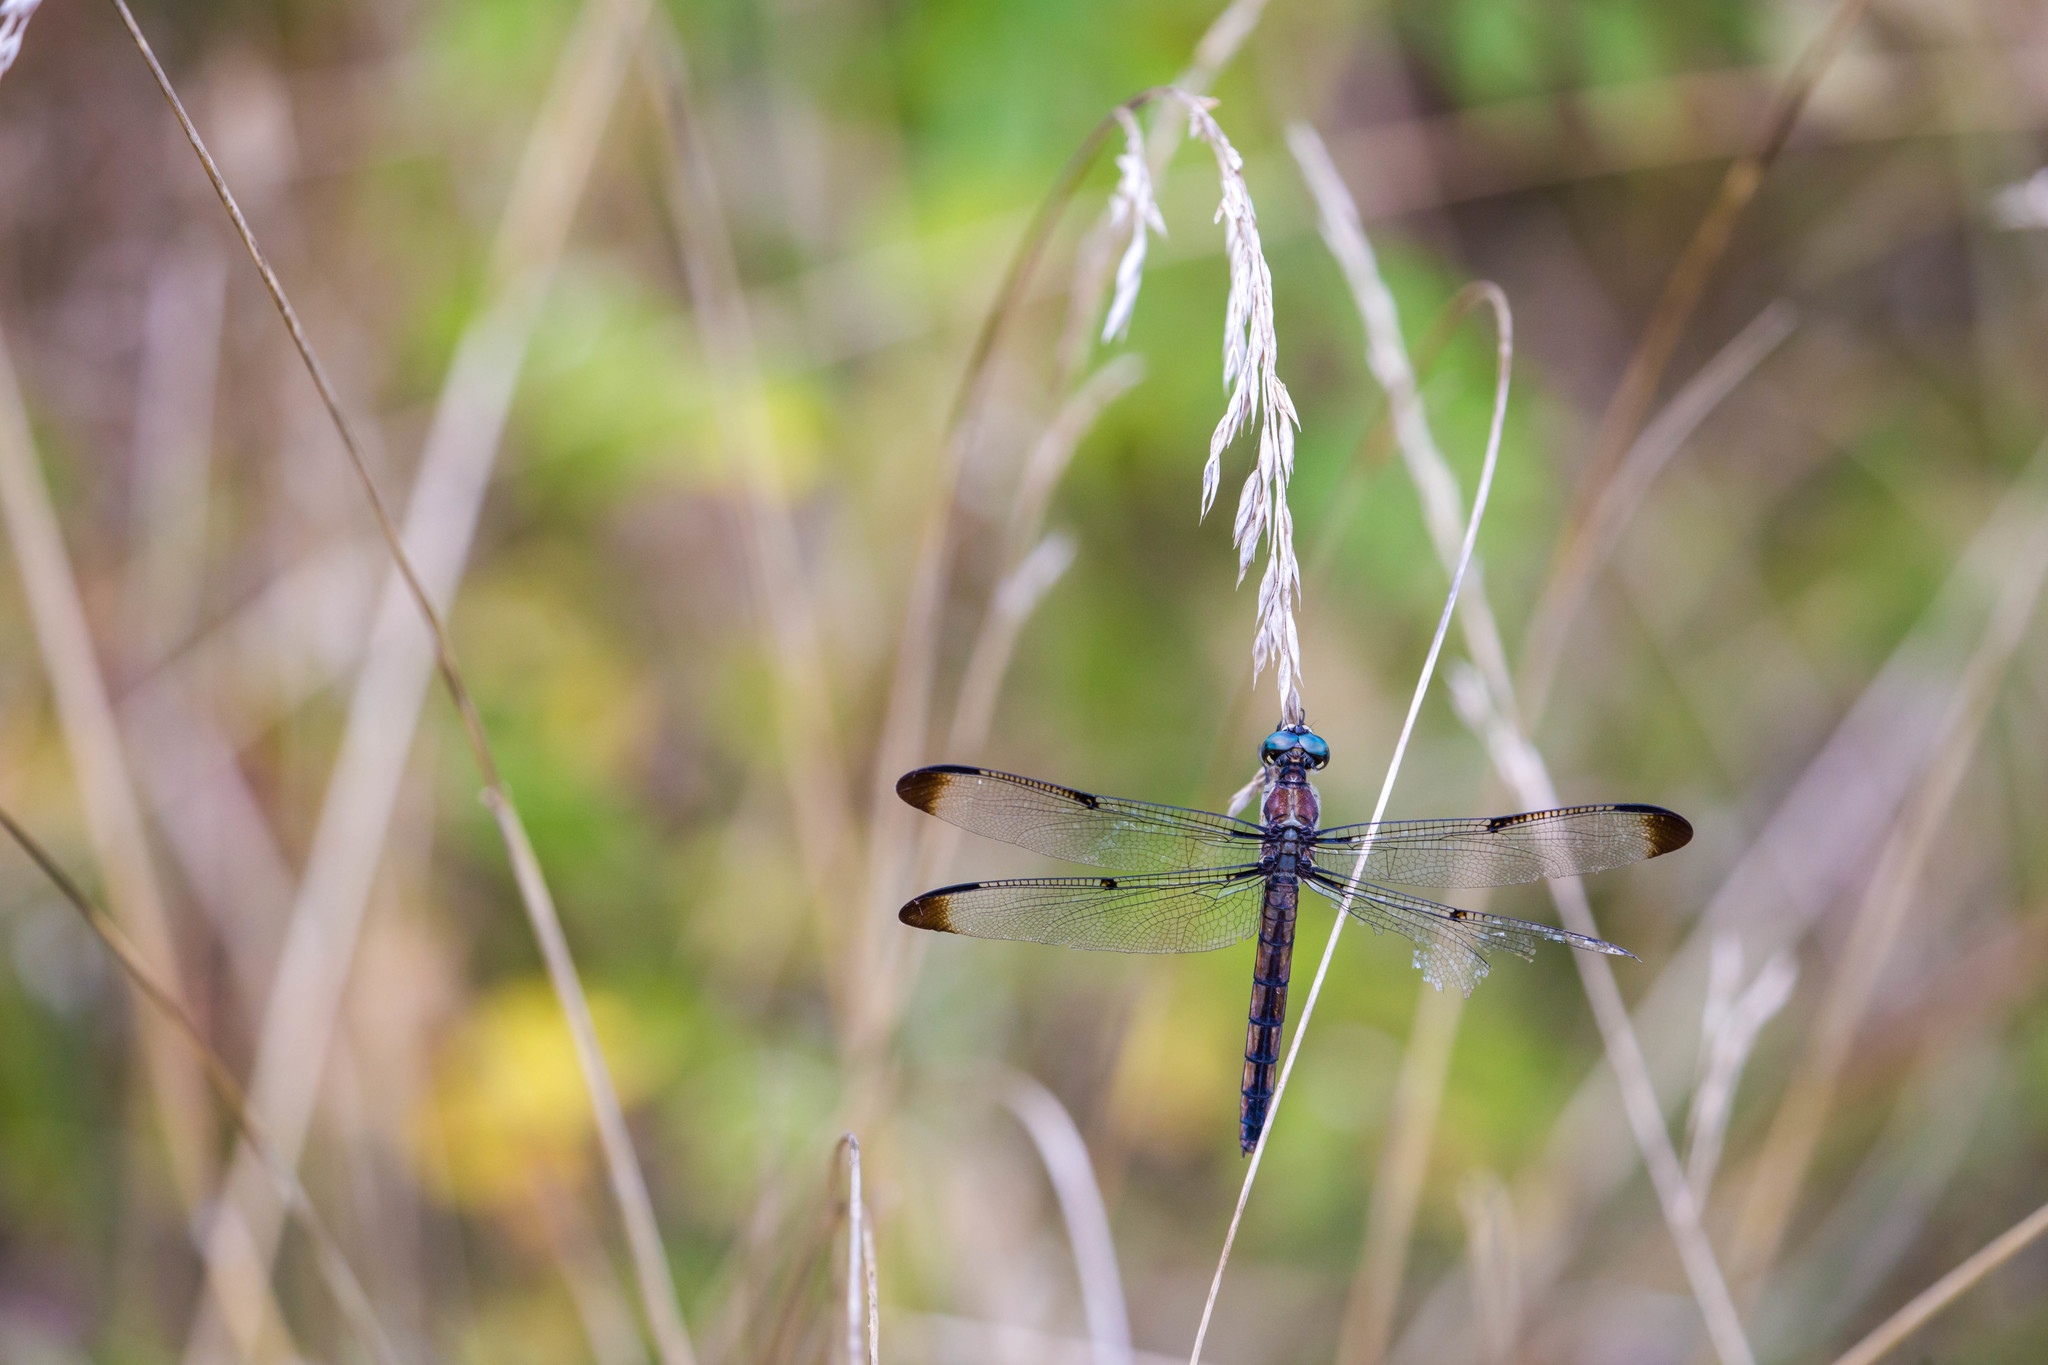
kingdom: Animalia
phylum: Arthropoda
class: Insecta
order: Odonata
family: Libellulidae
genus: Libellula
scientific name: Libellula vibrans
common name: Great blue skimmer
